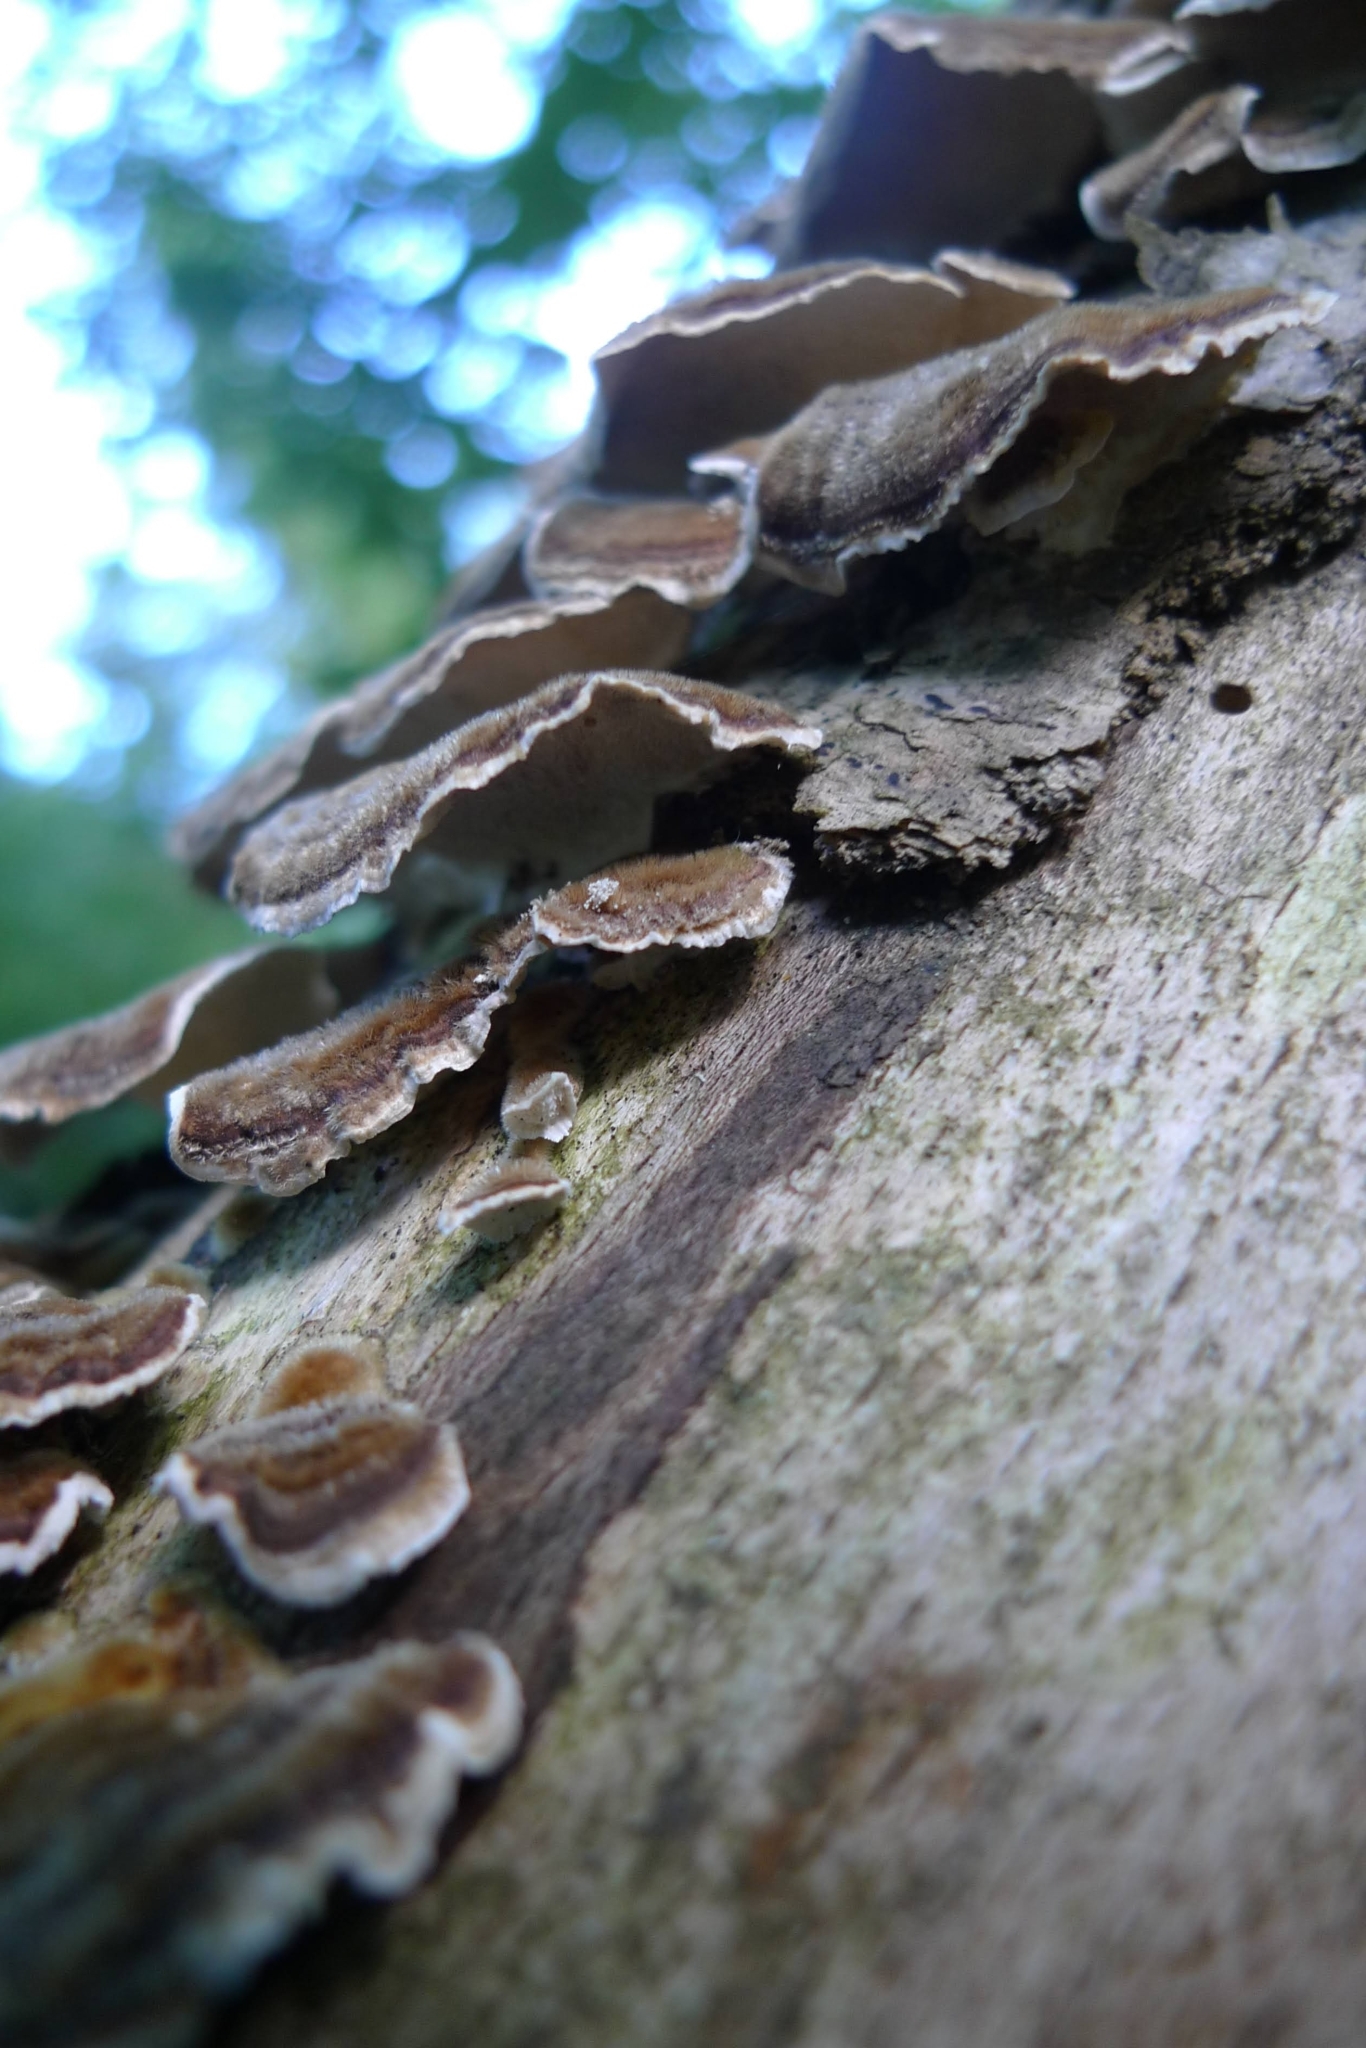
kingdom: Fungi
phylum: Basidiomycota
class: Agaricomycetes
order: Polyporales
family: Polyporaceae
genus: Trametes
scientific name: Trametes versicolor
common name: Turkeytail
